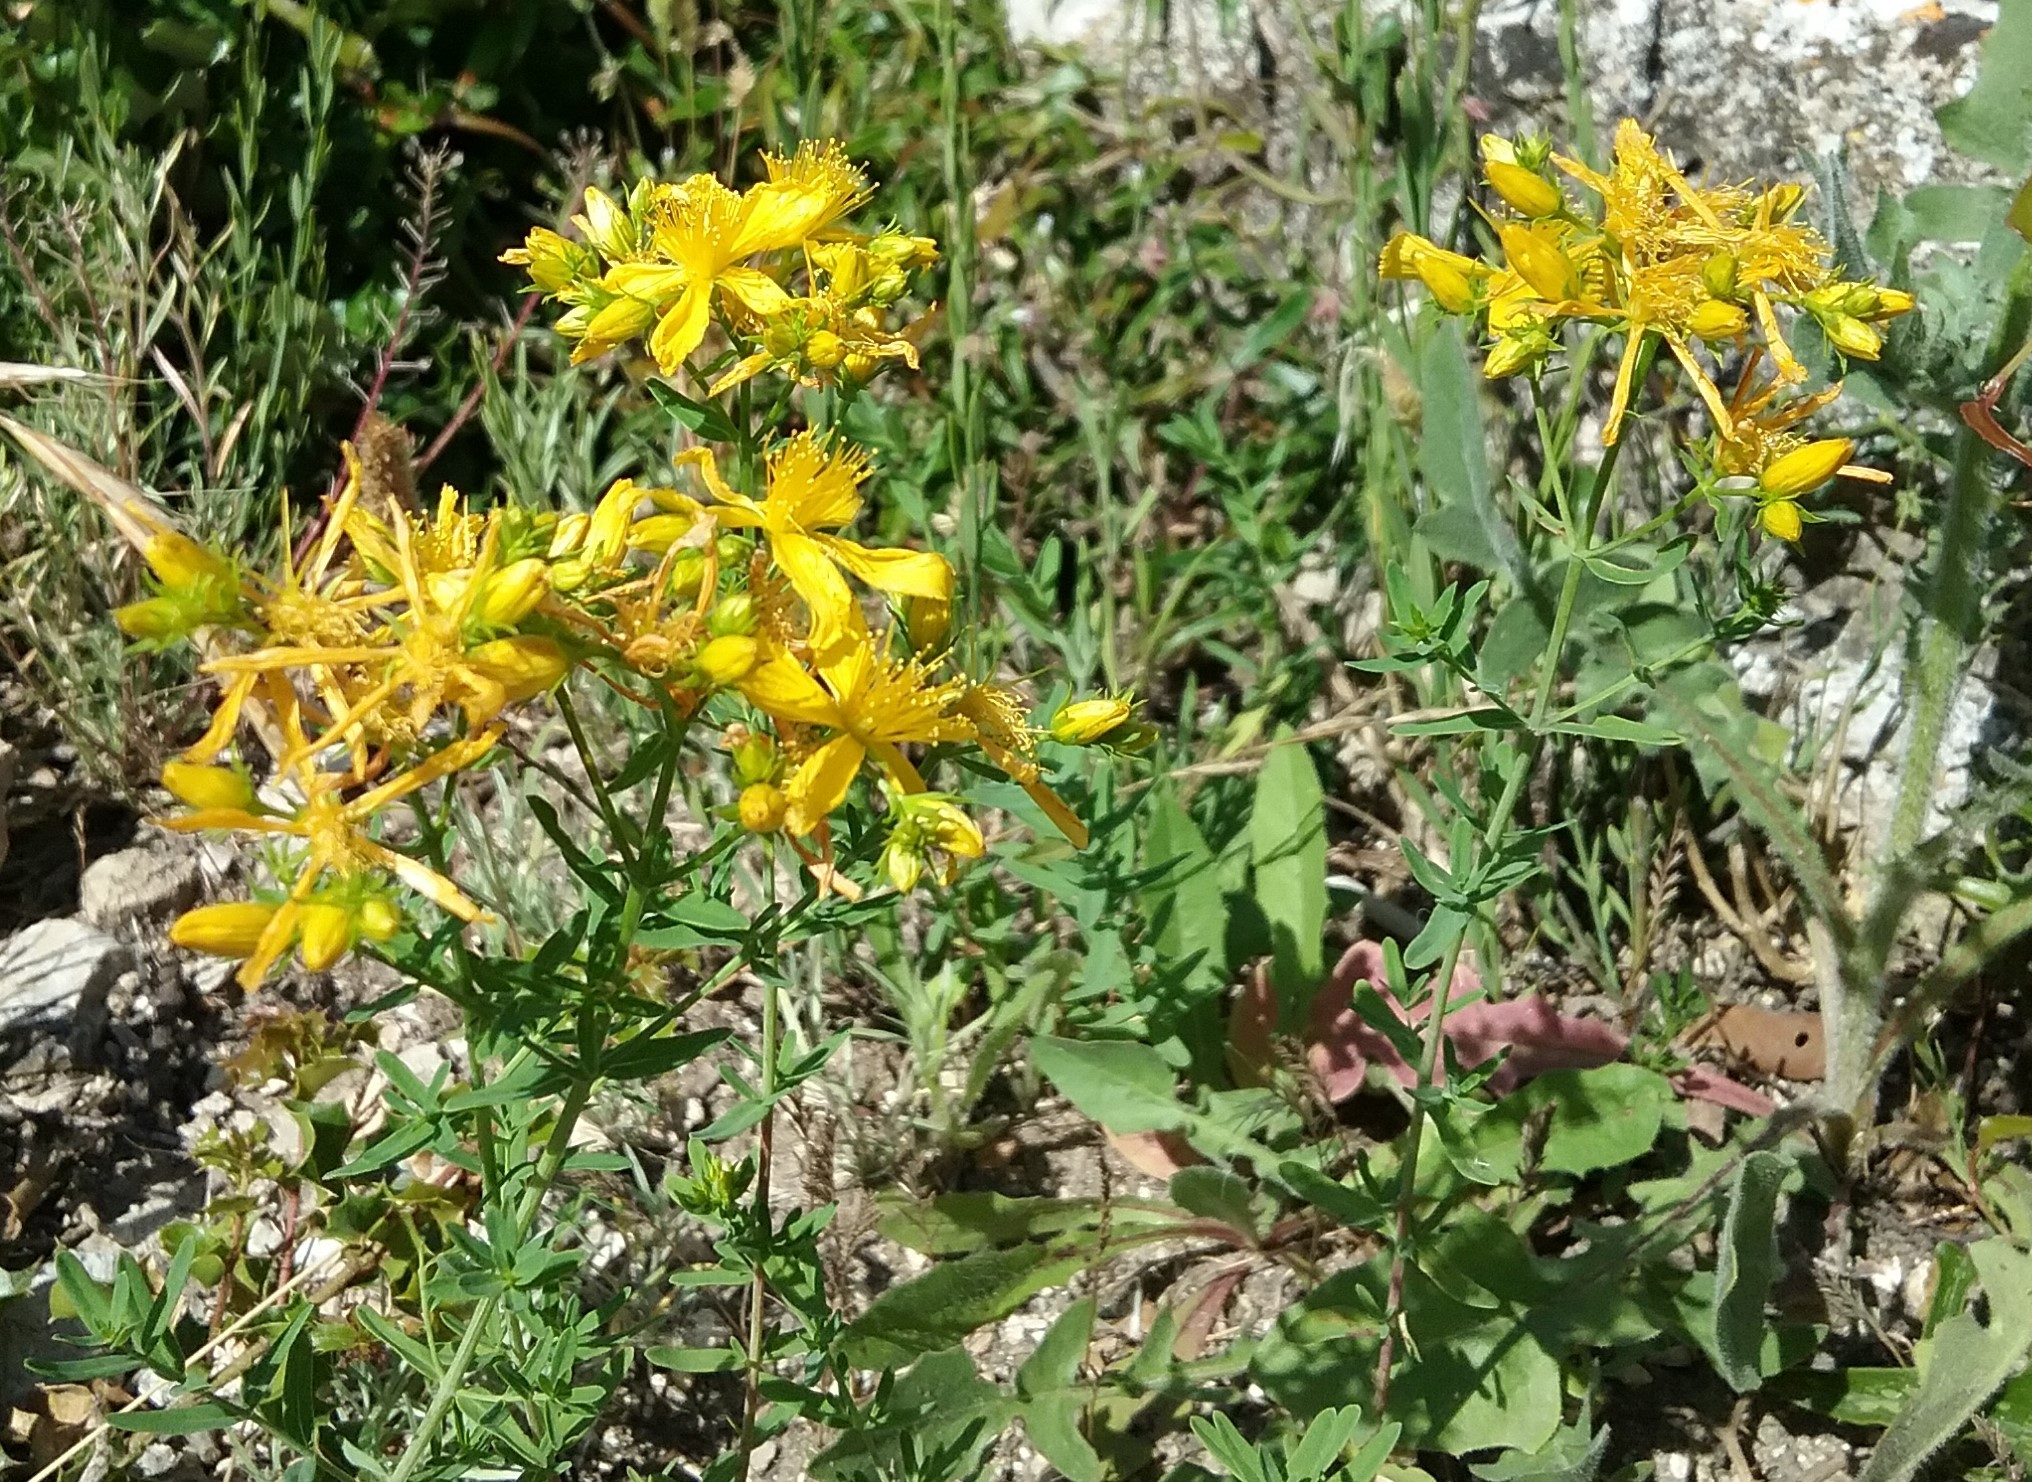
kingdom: Plantae
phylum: Tracheophyta
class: Magnoliopsida
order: Malpighiales
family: Hypericaceae
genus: Hypericum
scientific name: Hypericum perforatum
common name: Common st. johnswort
